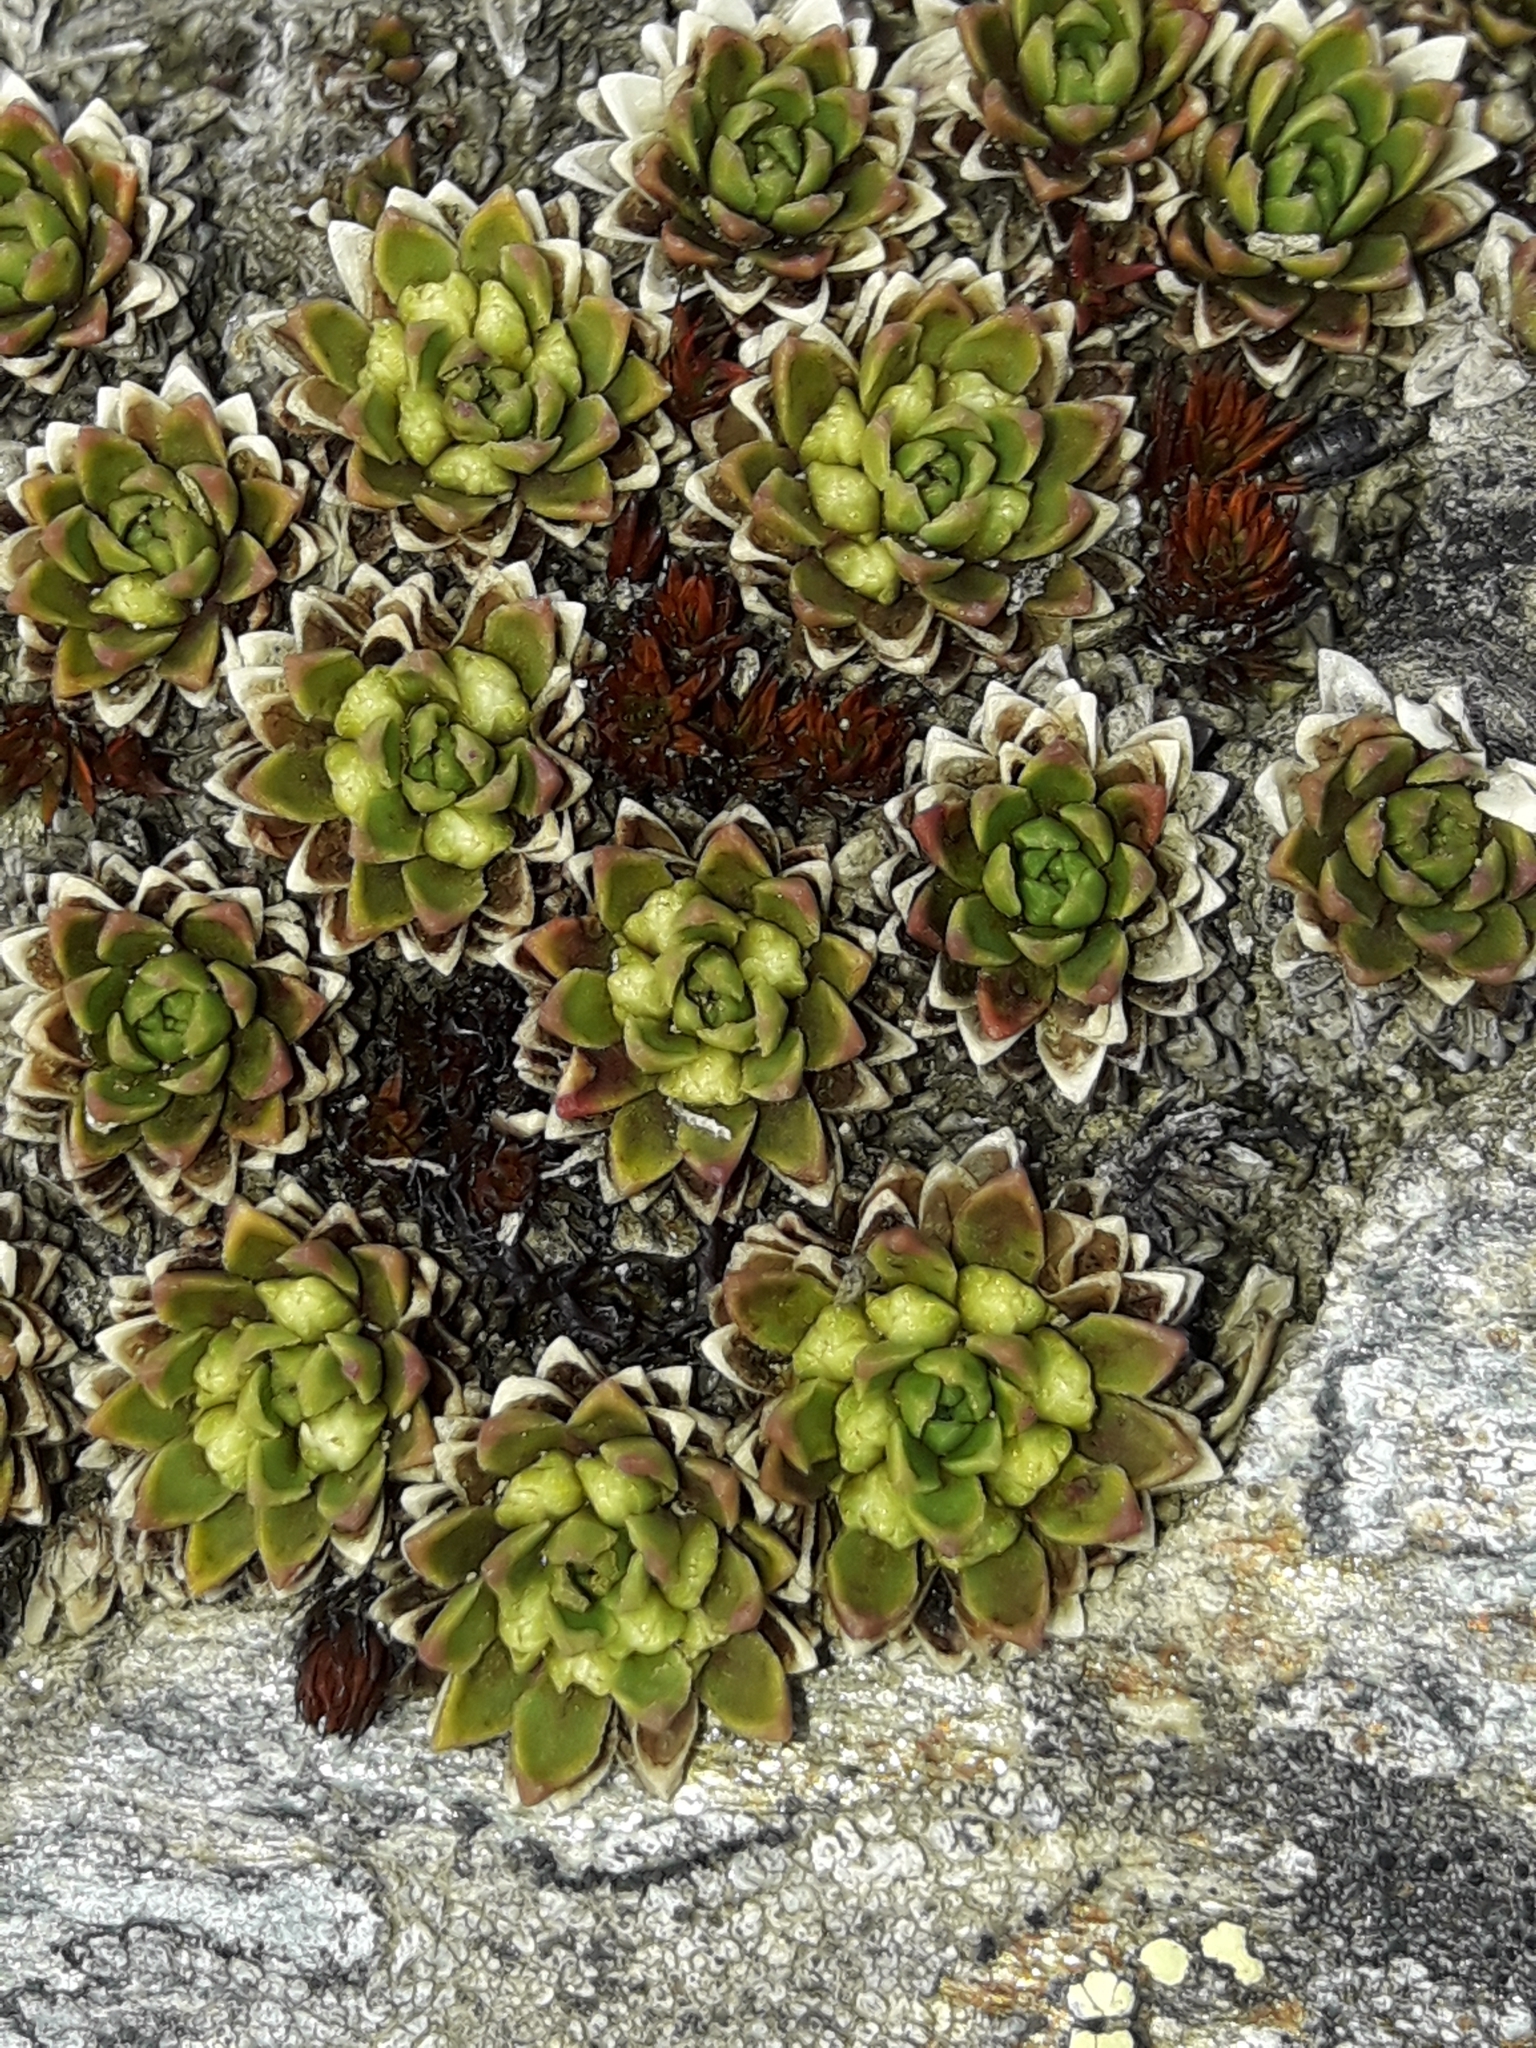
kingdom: Plantae
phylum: Tracheophyta
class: Magnoliopsida
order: Caryophyllales
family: Montiaceae
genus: Hectorella
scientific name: Hectorella caespitosa
